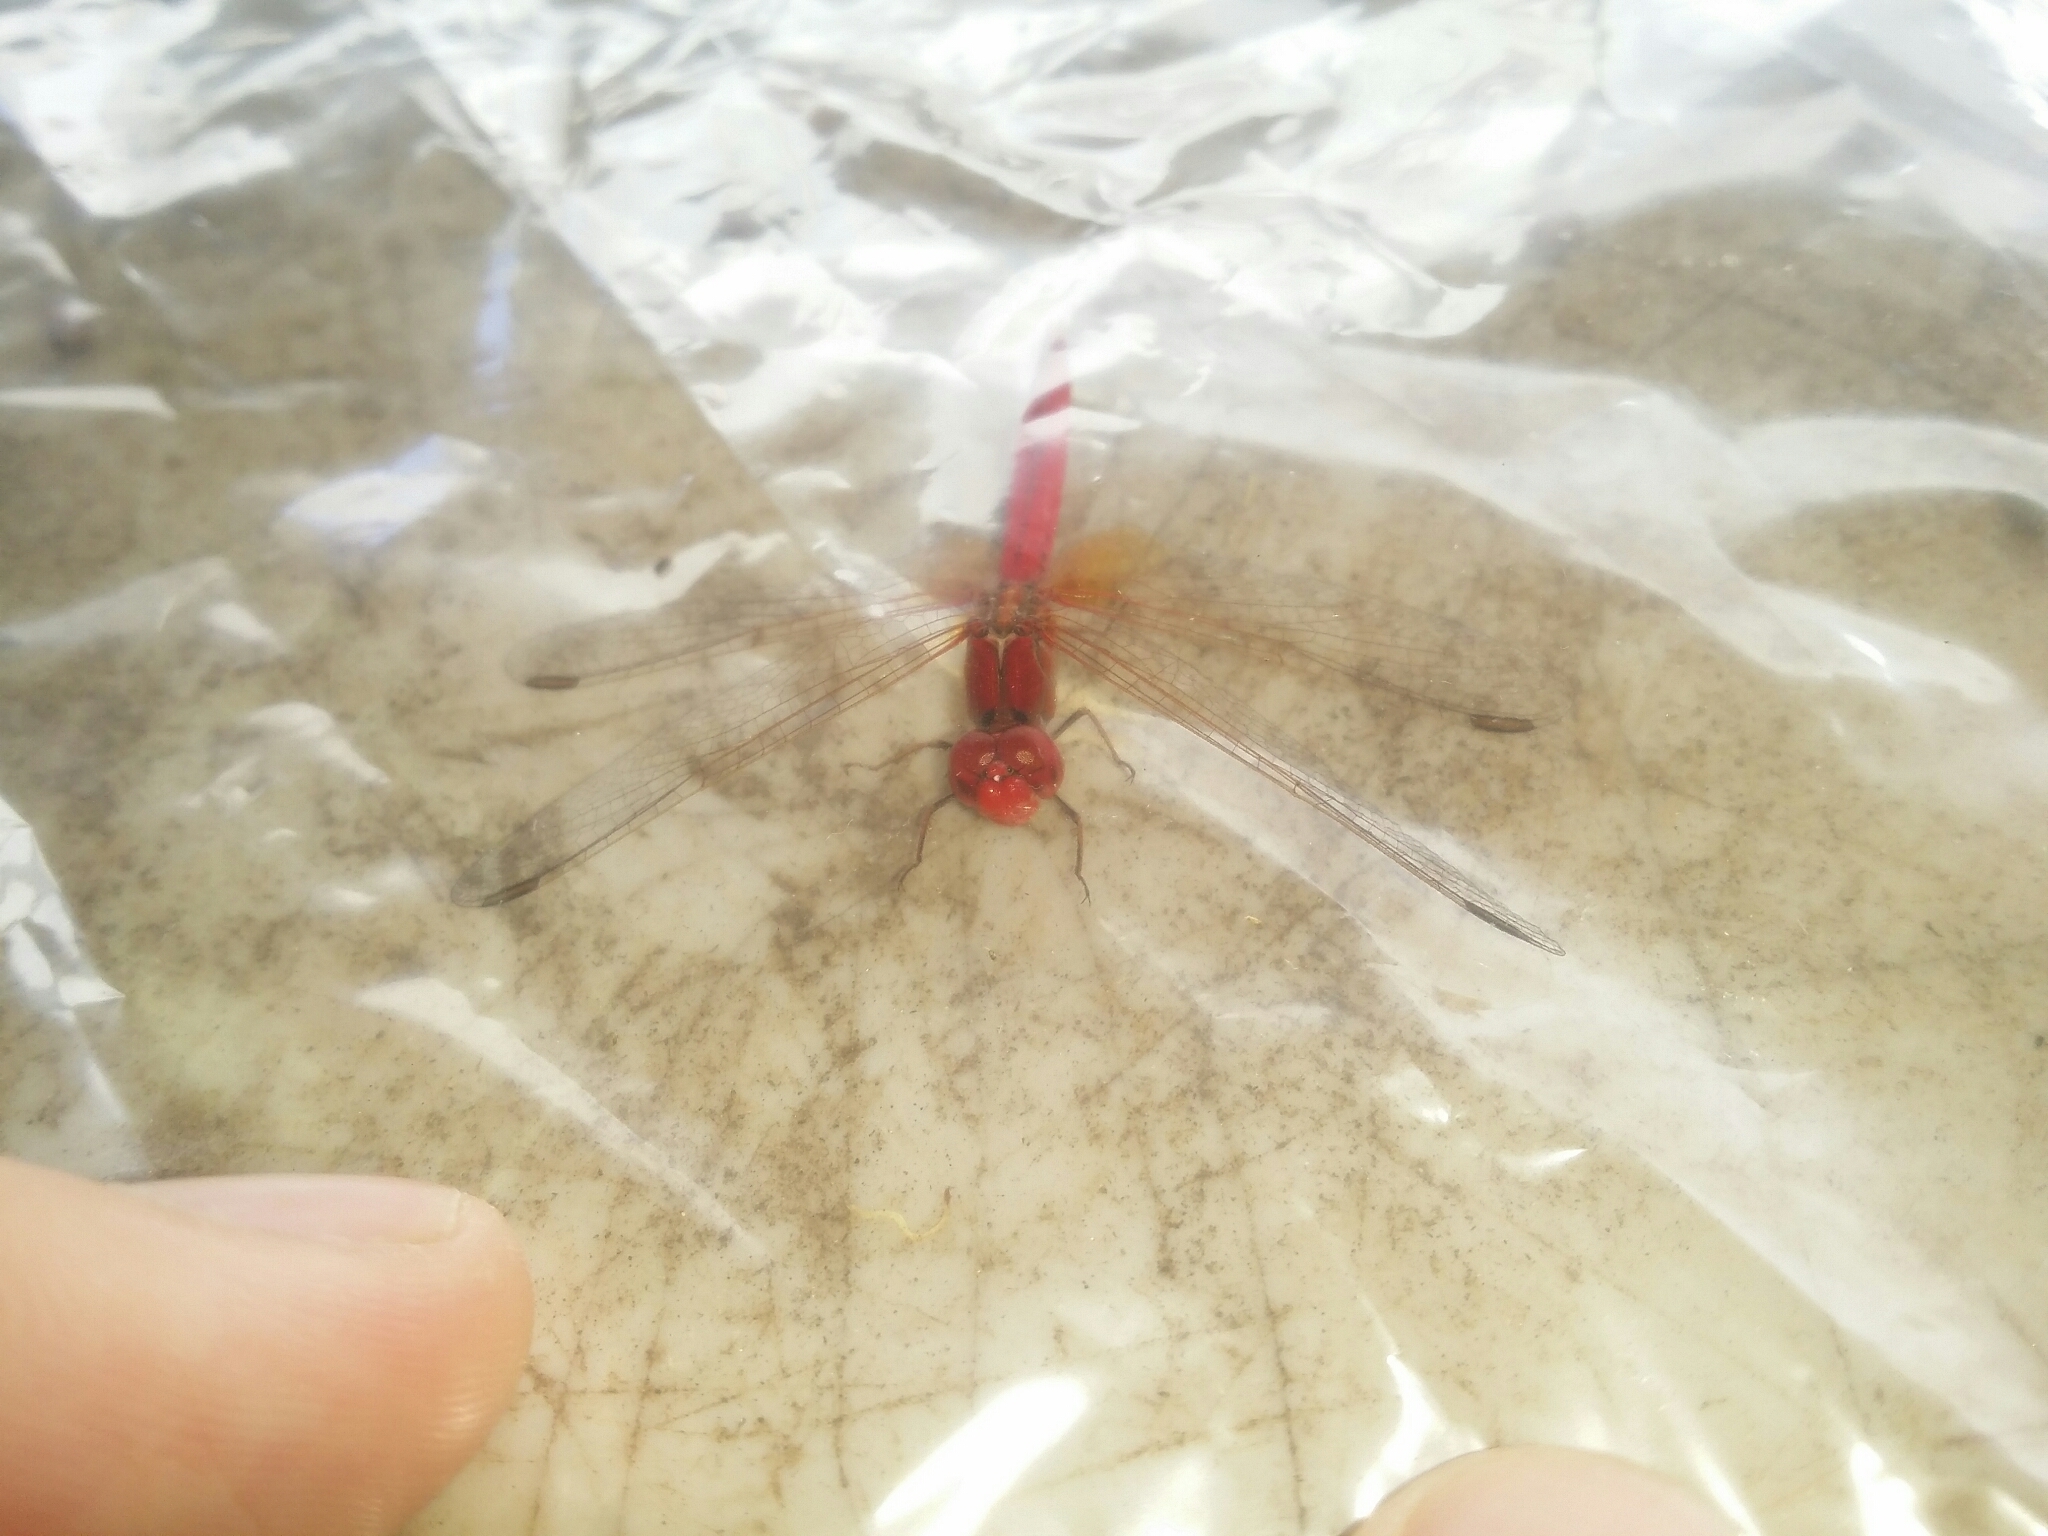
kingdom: Animalia
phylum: Arthropoda
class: Insecta
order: Odonata
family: Libellulidae
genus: Diplacodes
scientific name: Diplacodes haematodes
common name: Scarlet percher
